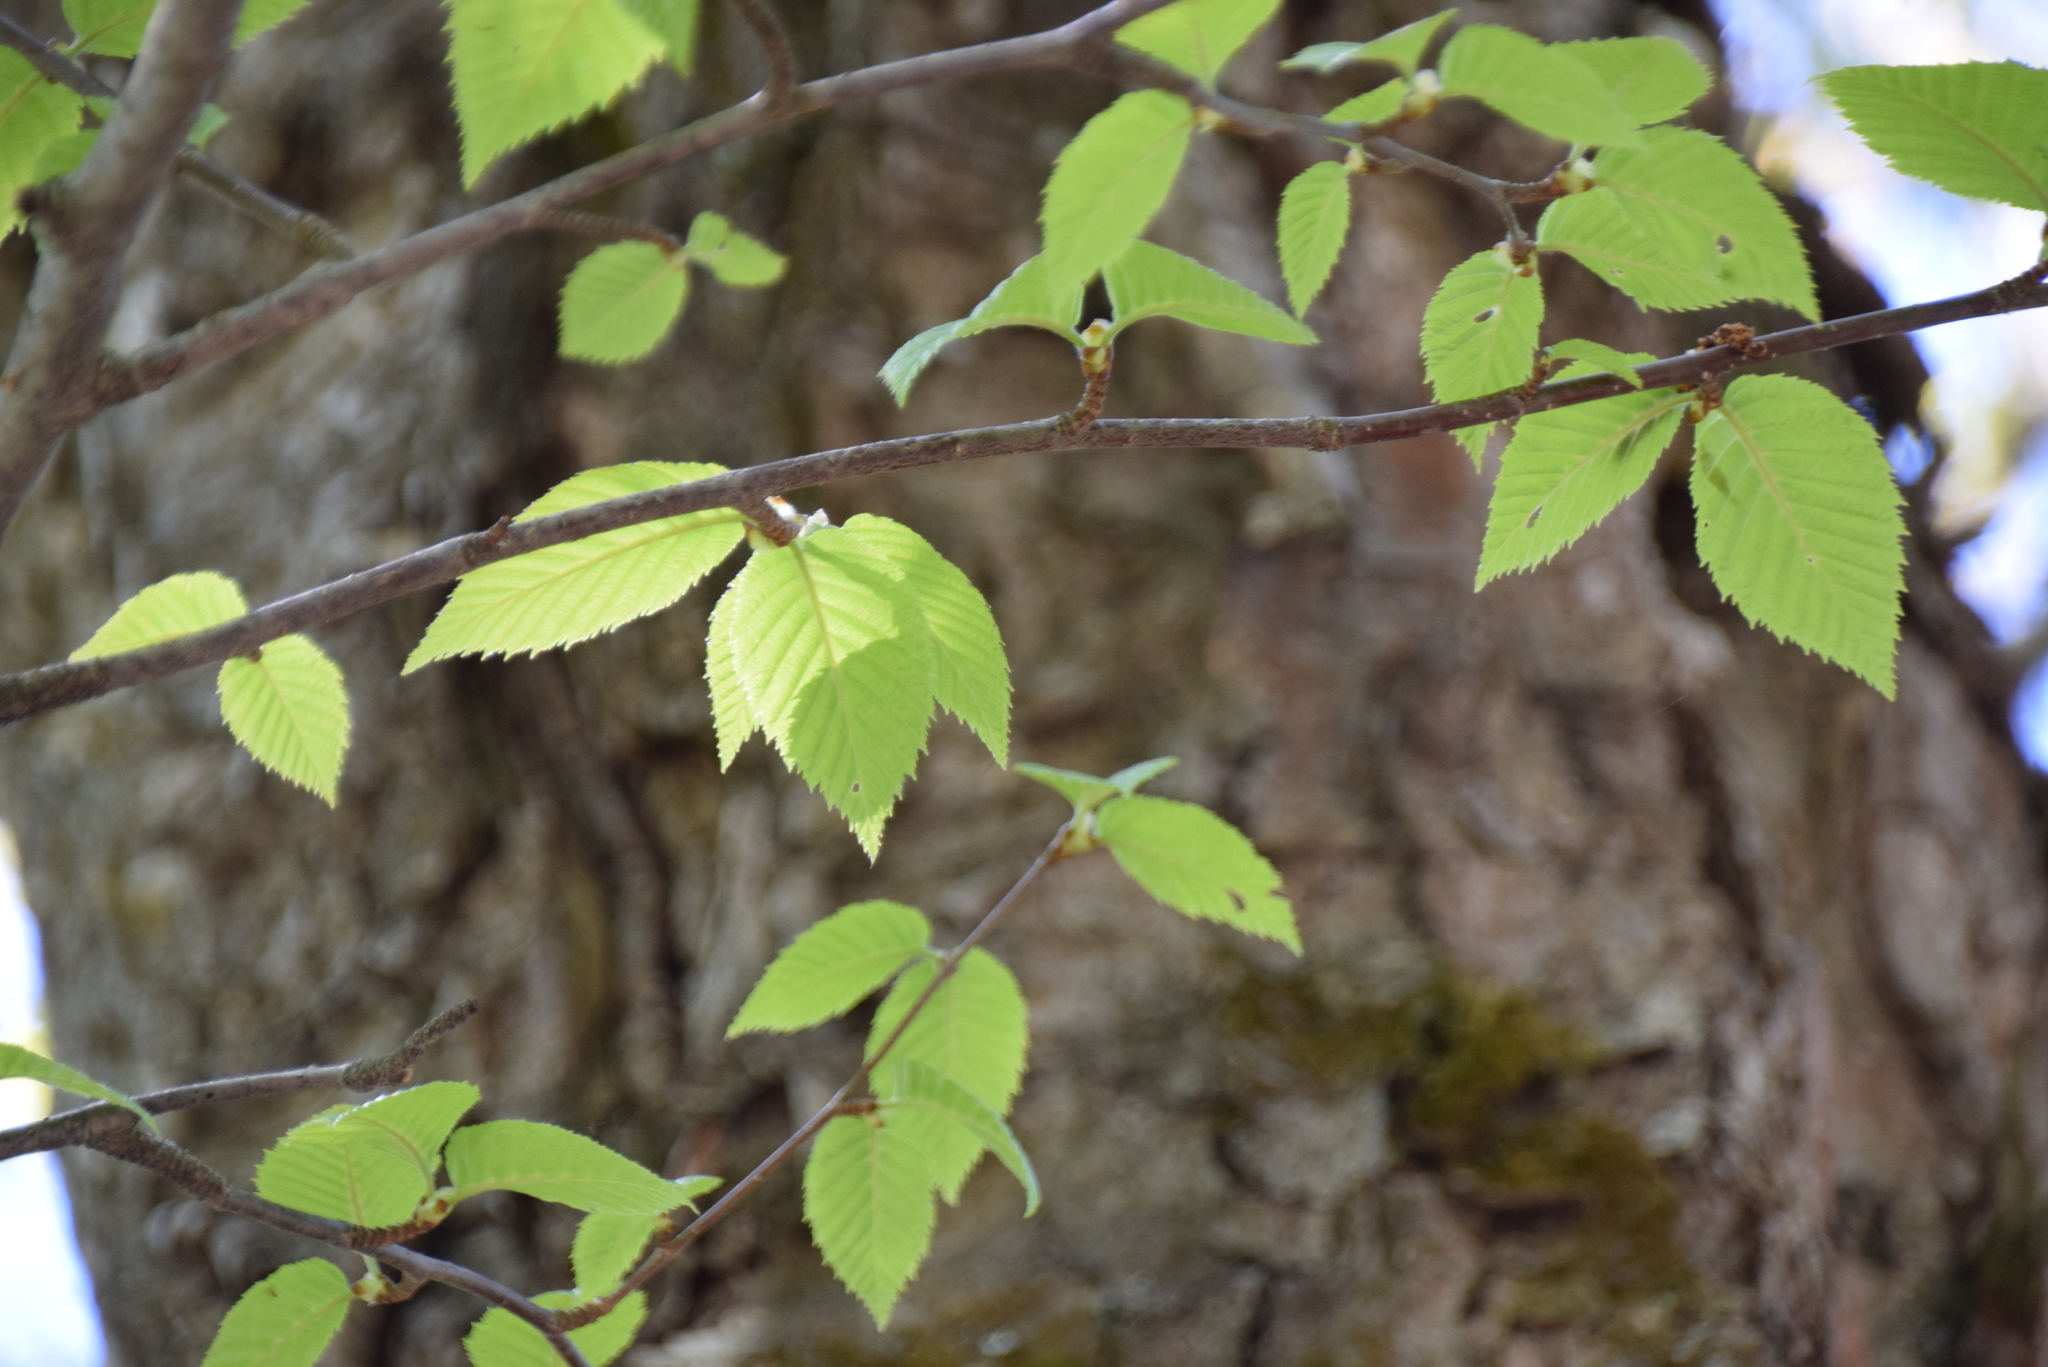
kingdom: Plantae
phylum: Tracheophyta
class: Magnoliopsida
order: Fagales
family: Betulaceae
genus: Betula
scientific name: Betula alleghaniensis
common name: Yellow birch
